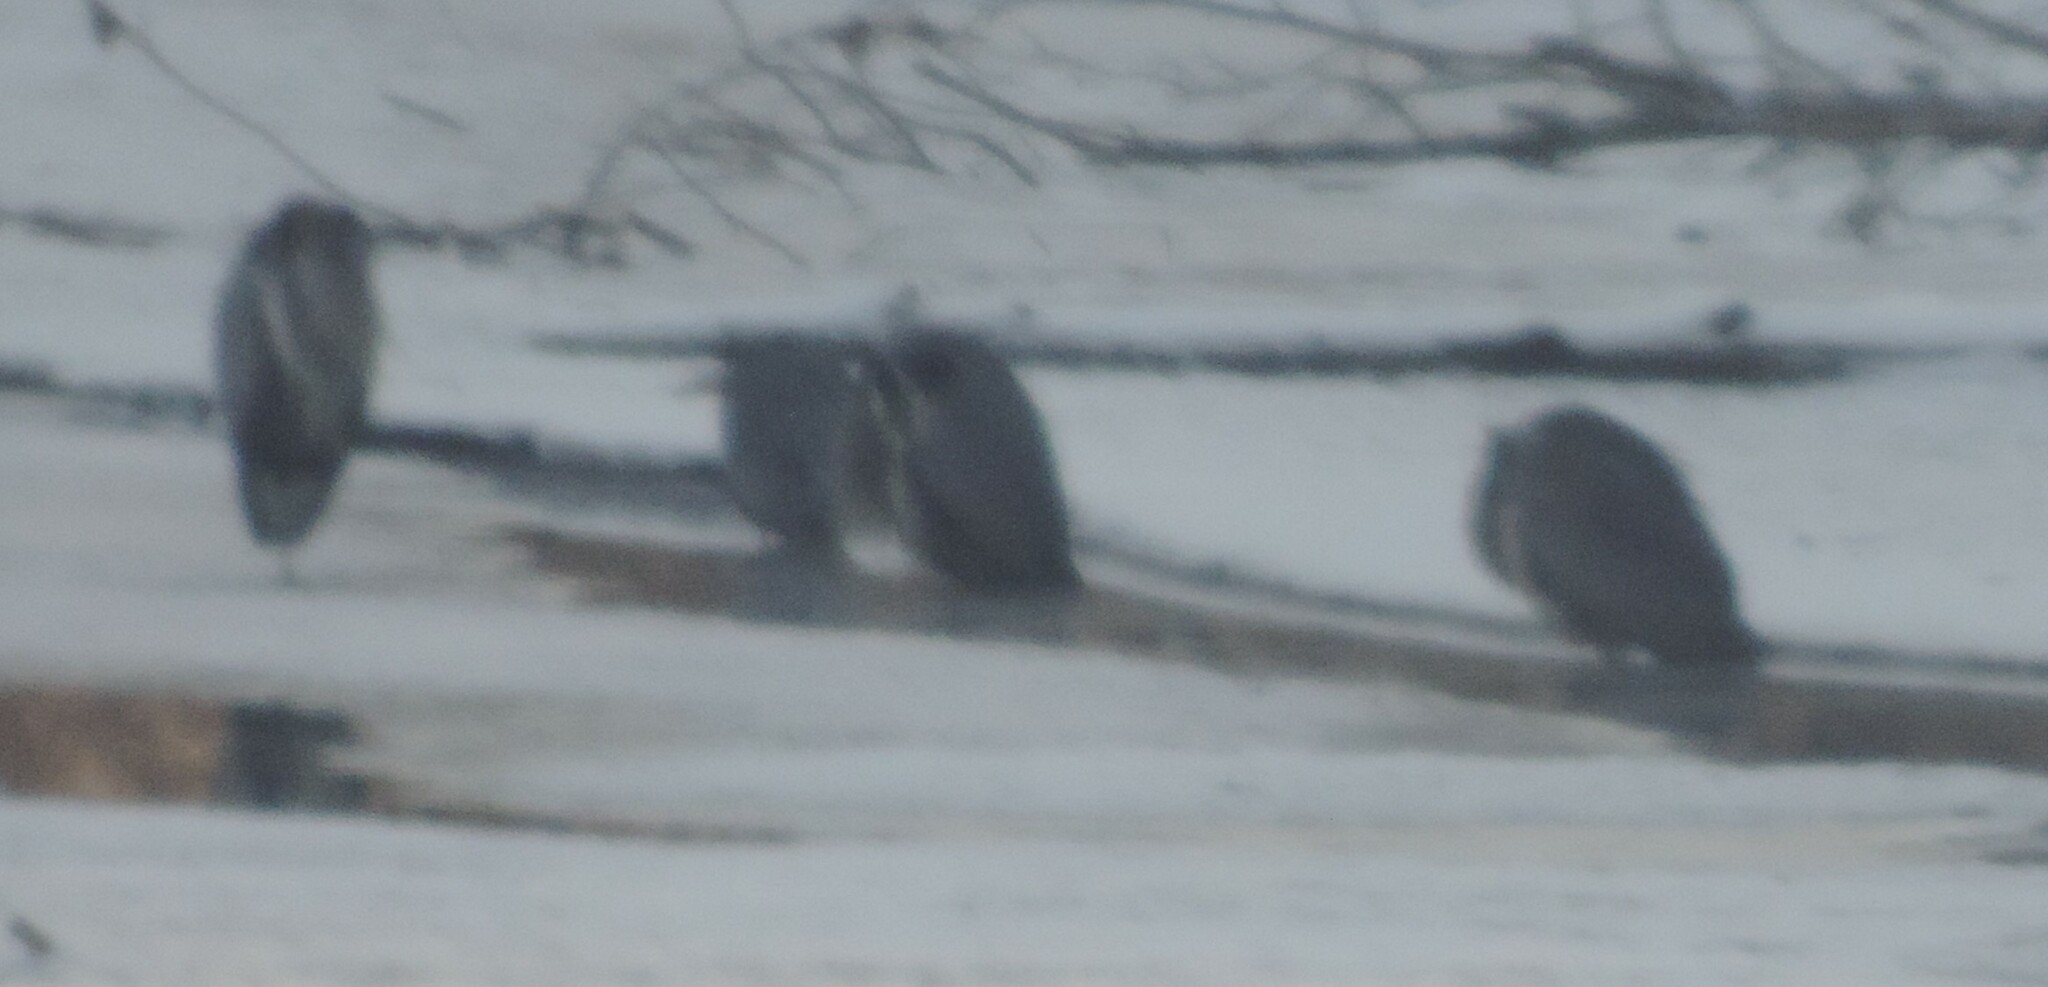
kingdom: Animalia
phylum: Chordata
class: Aves
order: Pelecaniformes
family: Ardeidae
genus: Ardea
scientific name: Ardea herodias
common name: Great blue heron
